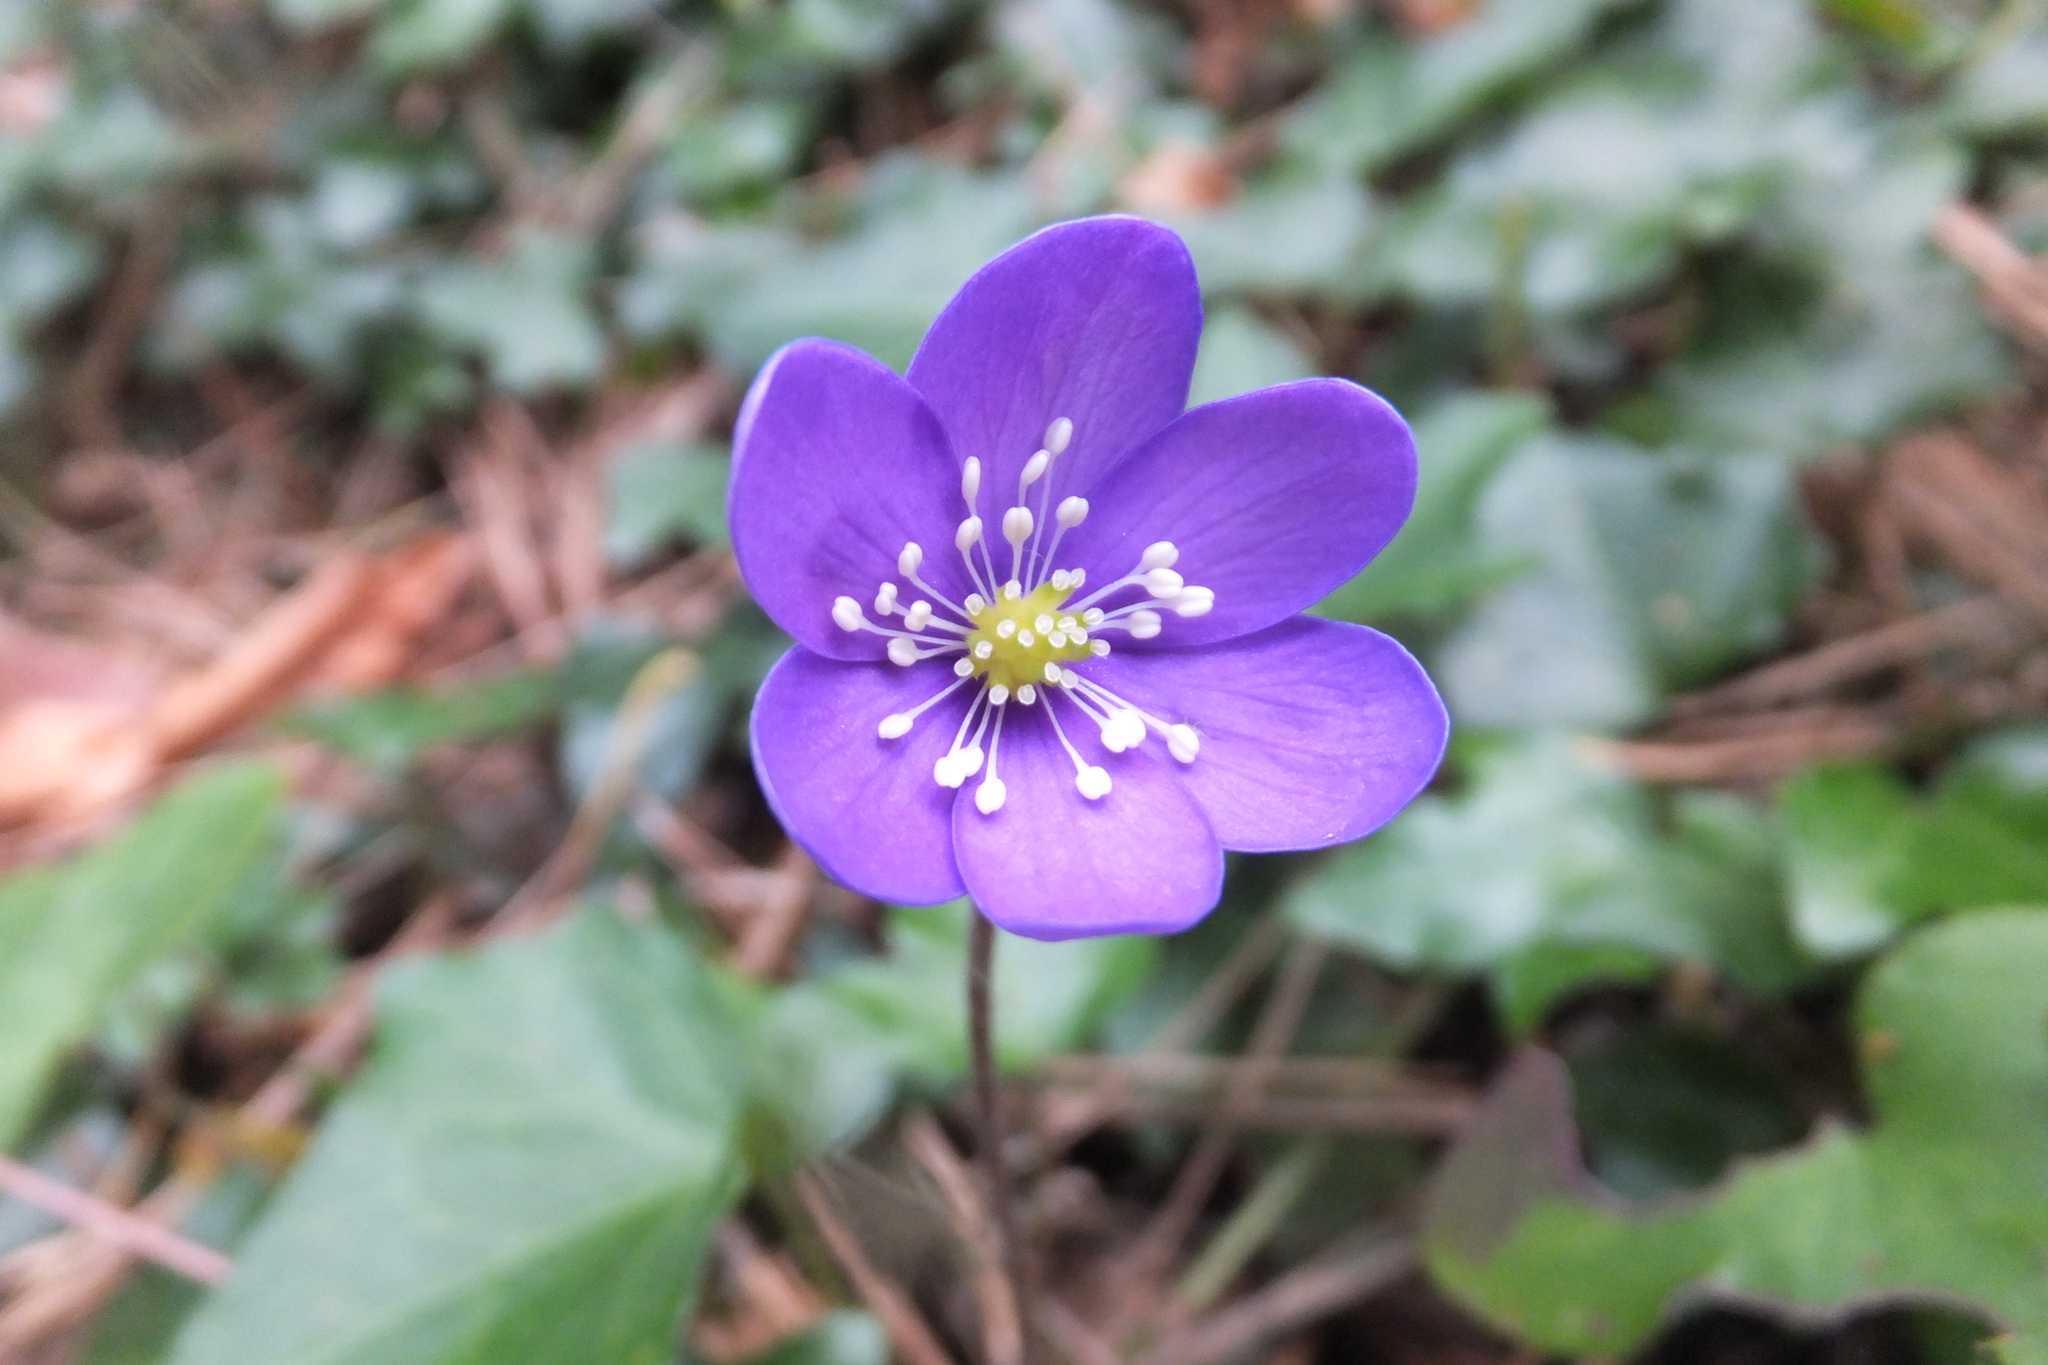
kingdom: Plantae
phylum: Tracheophyta
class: Magnoliopsida
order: Ranunculales
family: Ranunculaceae
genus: Hepatica
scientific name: Hepatica nobilis
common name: Liverleaf
